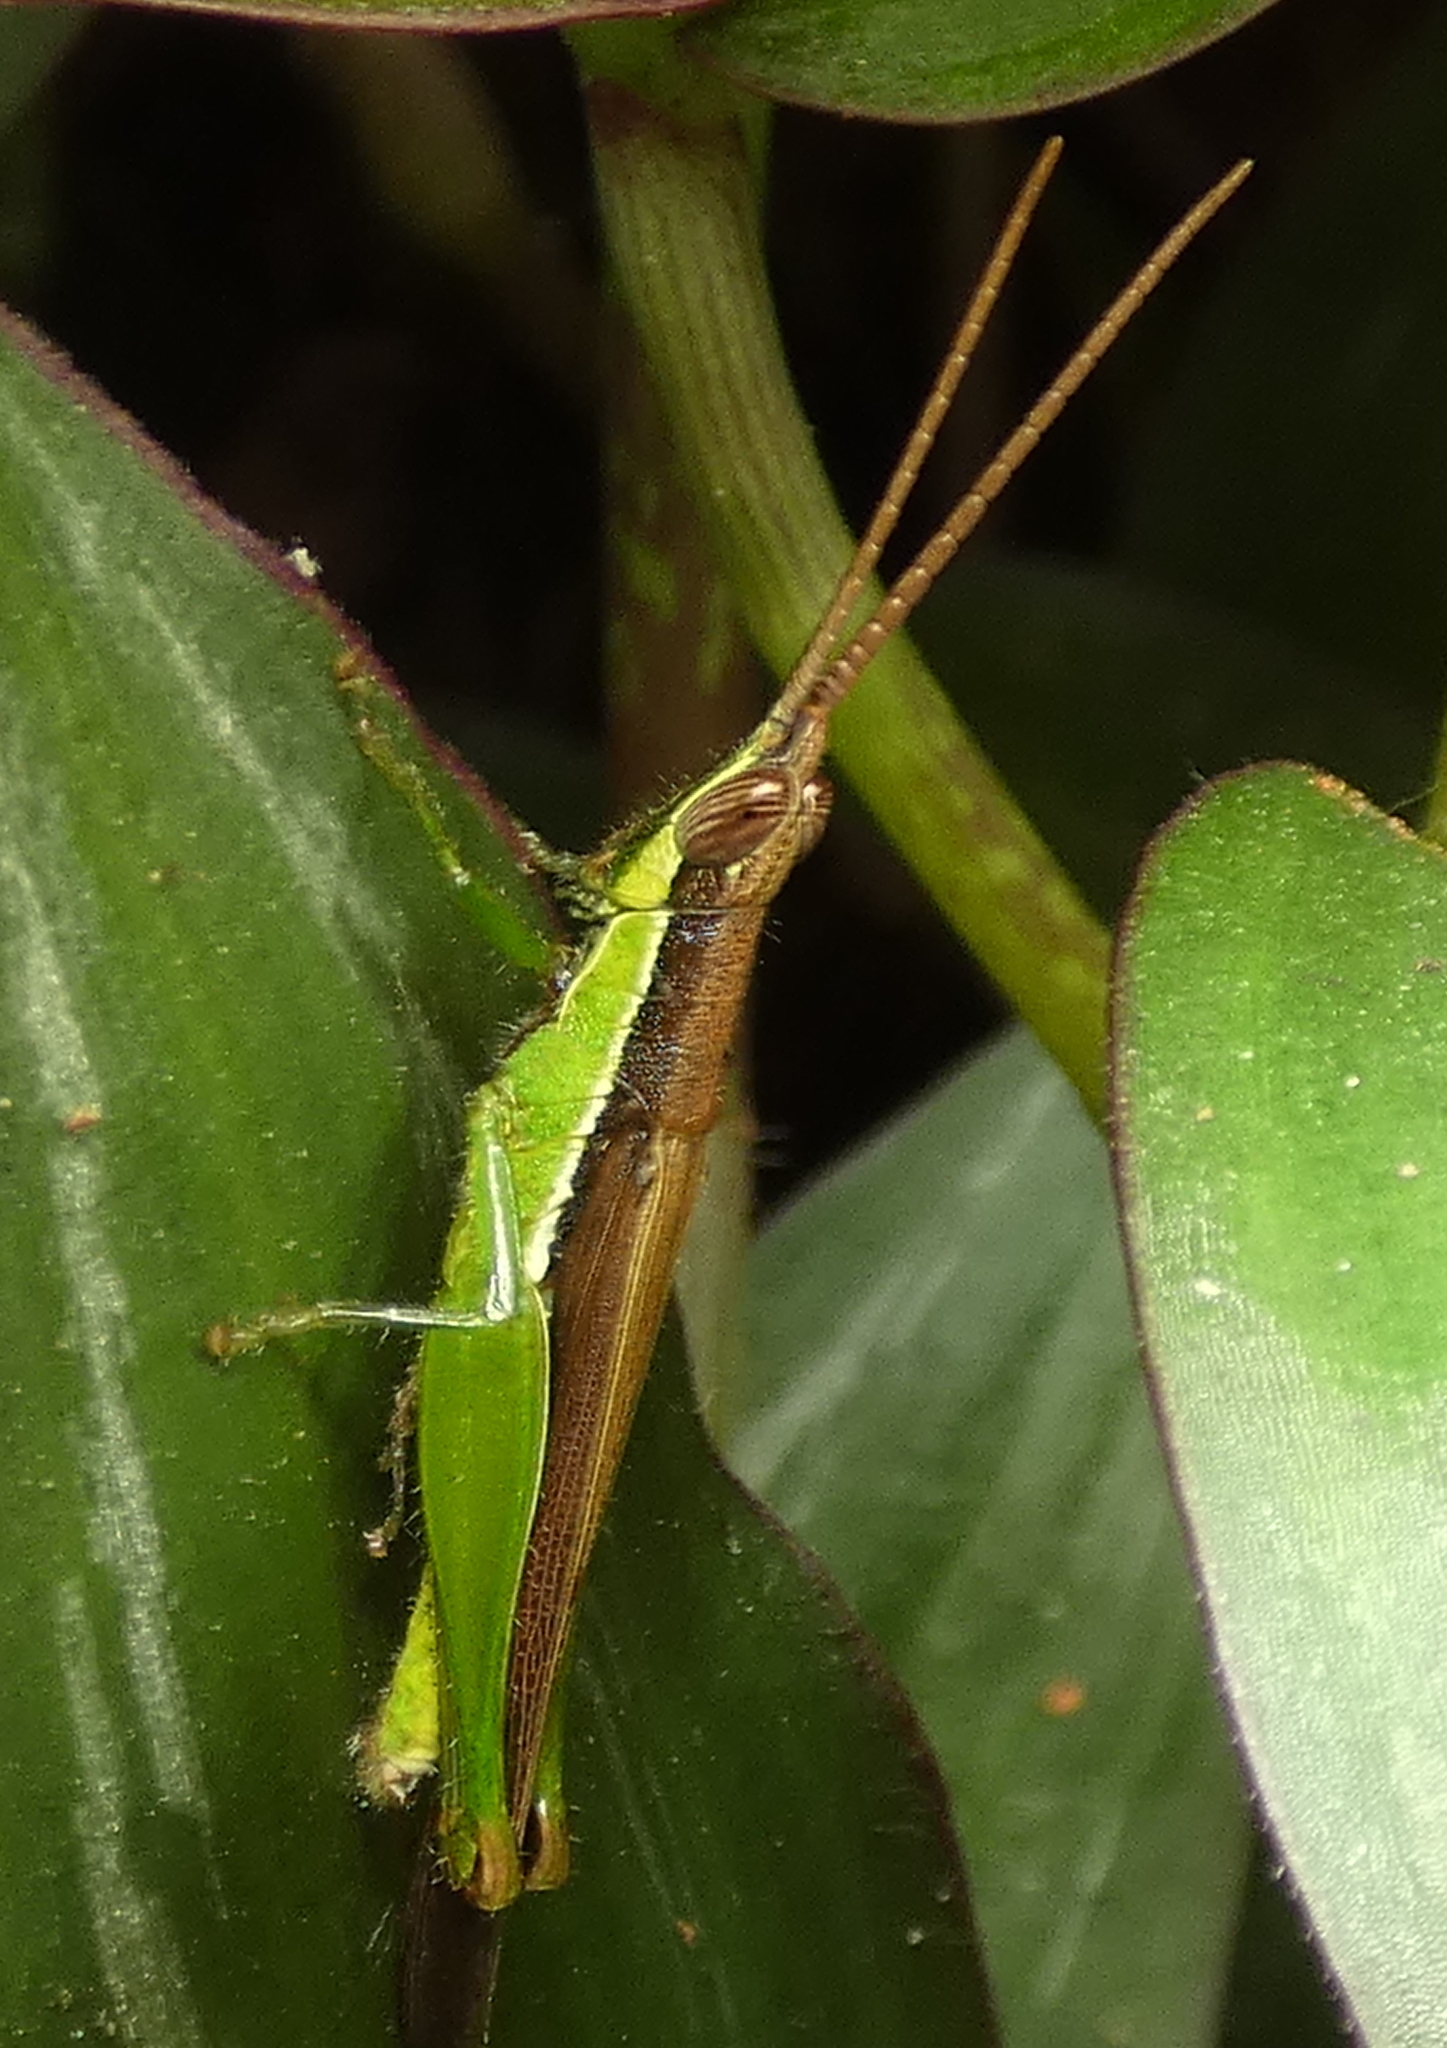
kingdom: Animalia
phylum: Arthropoda
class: Insecta
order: Orthoptera
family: Acrididae
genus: Stenopola
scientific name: Stenopola dorsalis
